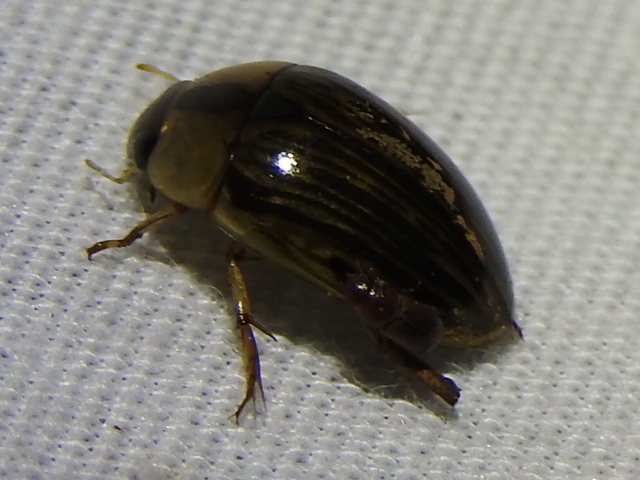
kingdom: Animalia
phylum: Arthropoda
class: Insecta
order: Coleoptera
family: Hydrophilidae
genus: Tropisternus
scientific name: Tropisternus collaris
